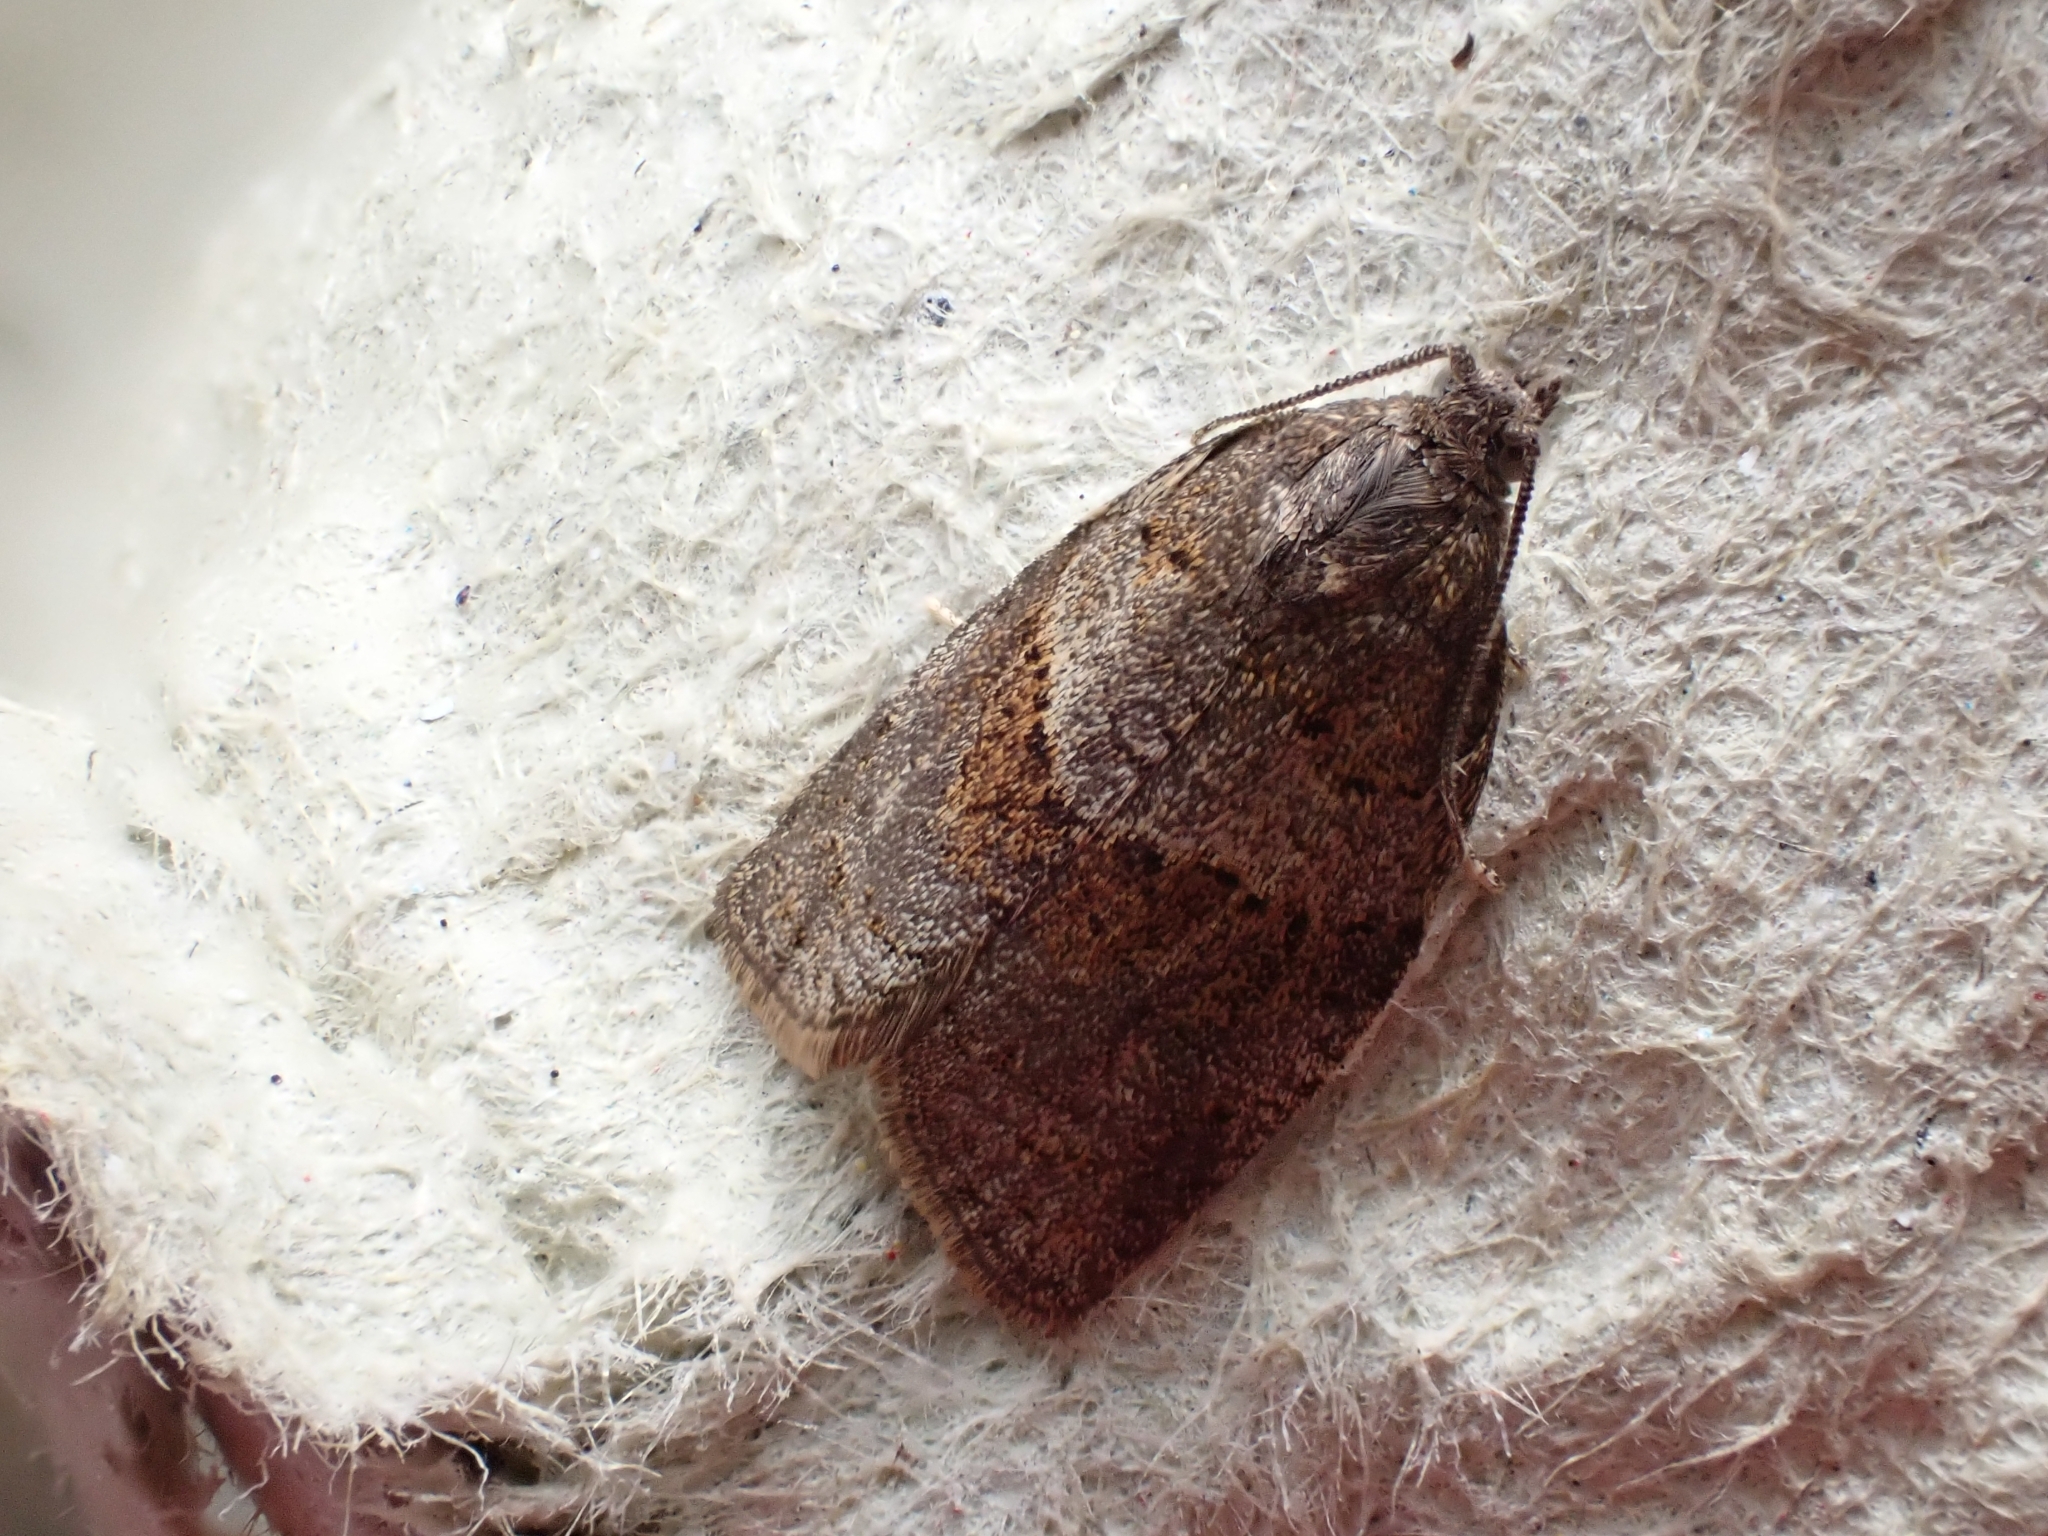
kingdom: Animalia
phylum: Arthropoda
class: Insecta
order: Lepidoptera
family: Tortricidae
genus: Syndemis
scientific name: Syndemis musculana
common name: Dark-barred twist
